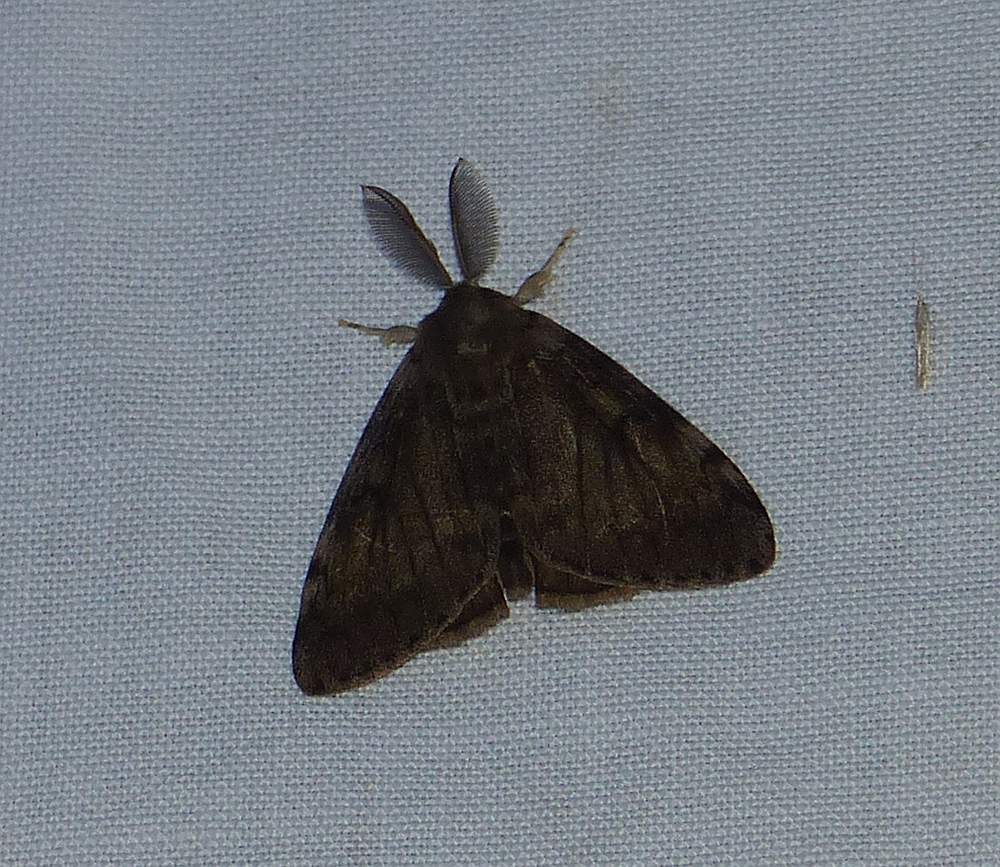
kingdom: Animalia
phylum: Arthropoda
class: Insecta
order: Lepidoptera
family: Erebidae
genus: Lymantria
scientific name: Lymantria dispar
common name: Gypsy moth
